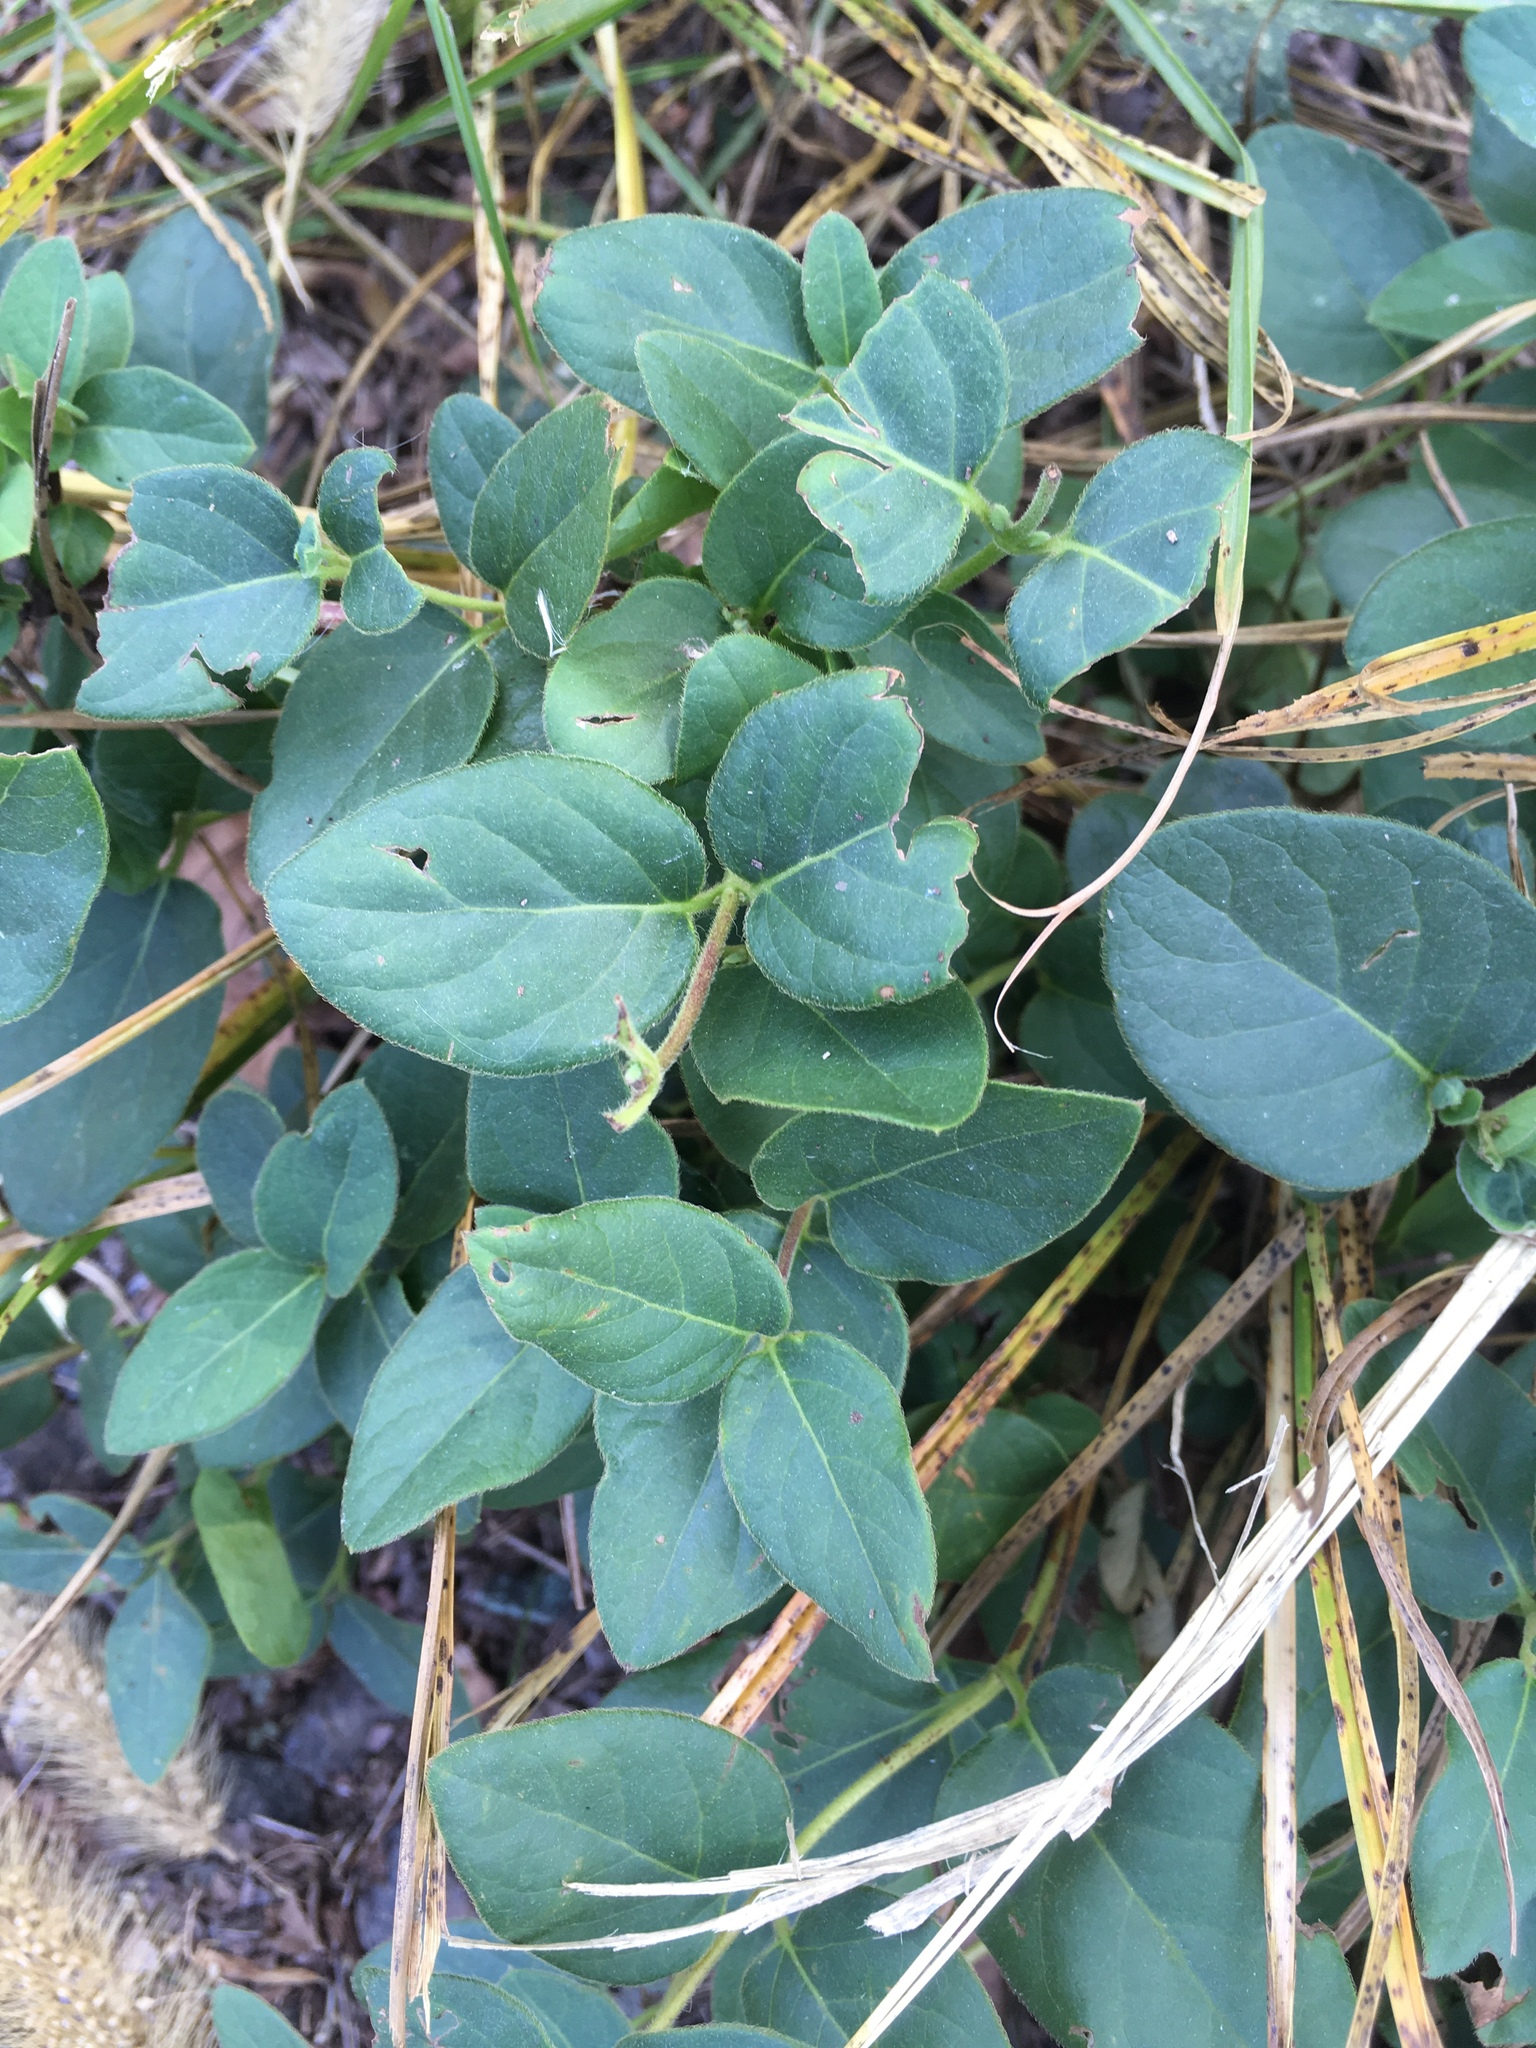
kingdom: Plantae
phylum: Tracheophyta
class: Magnoliopsida
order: Gentianales
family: Apocynaceae
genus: Vinca
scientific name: Vinca major
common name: Greater periwinkle
